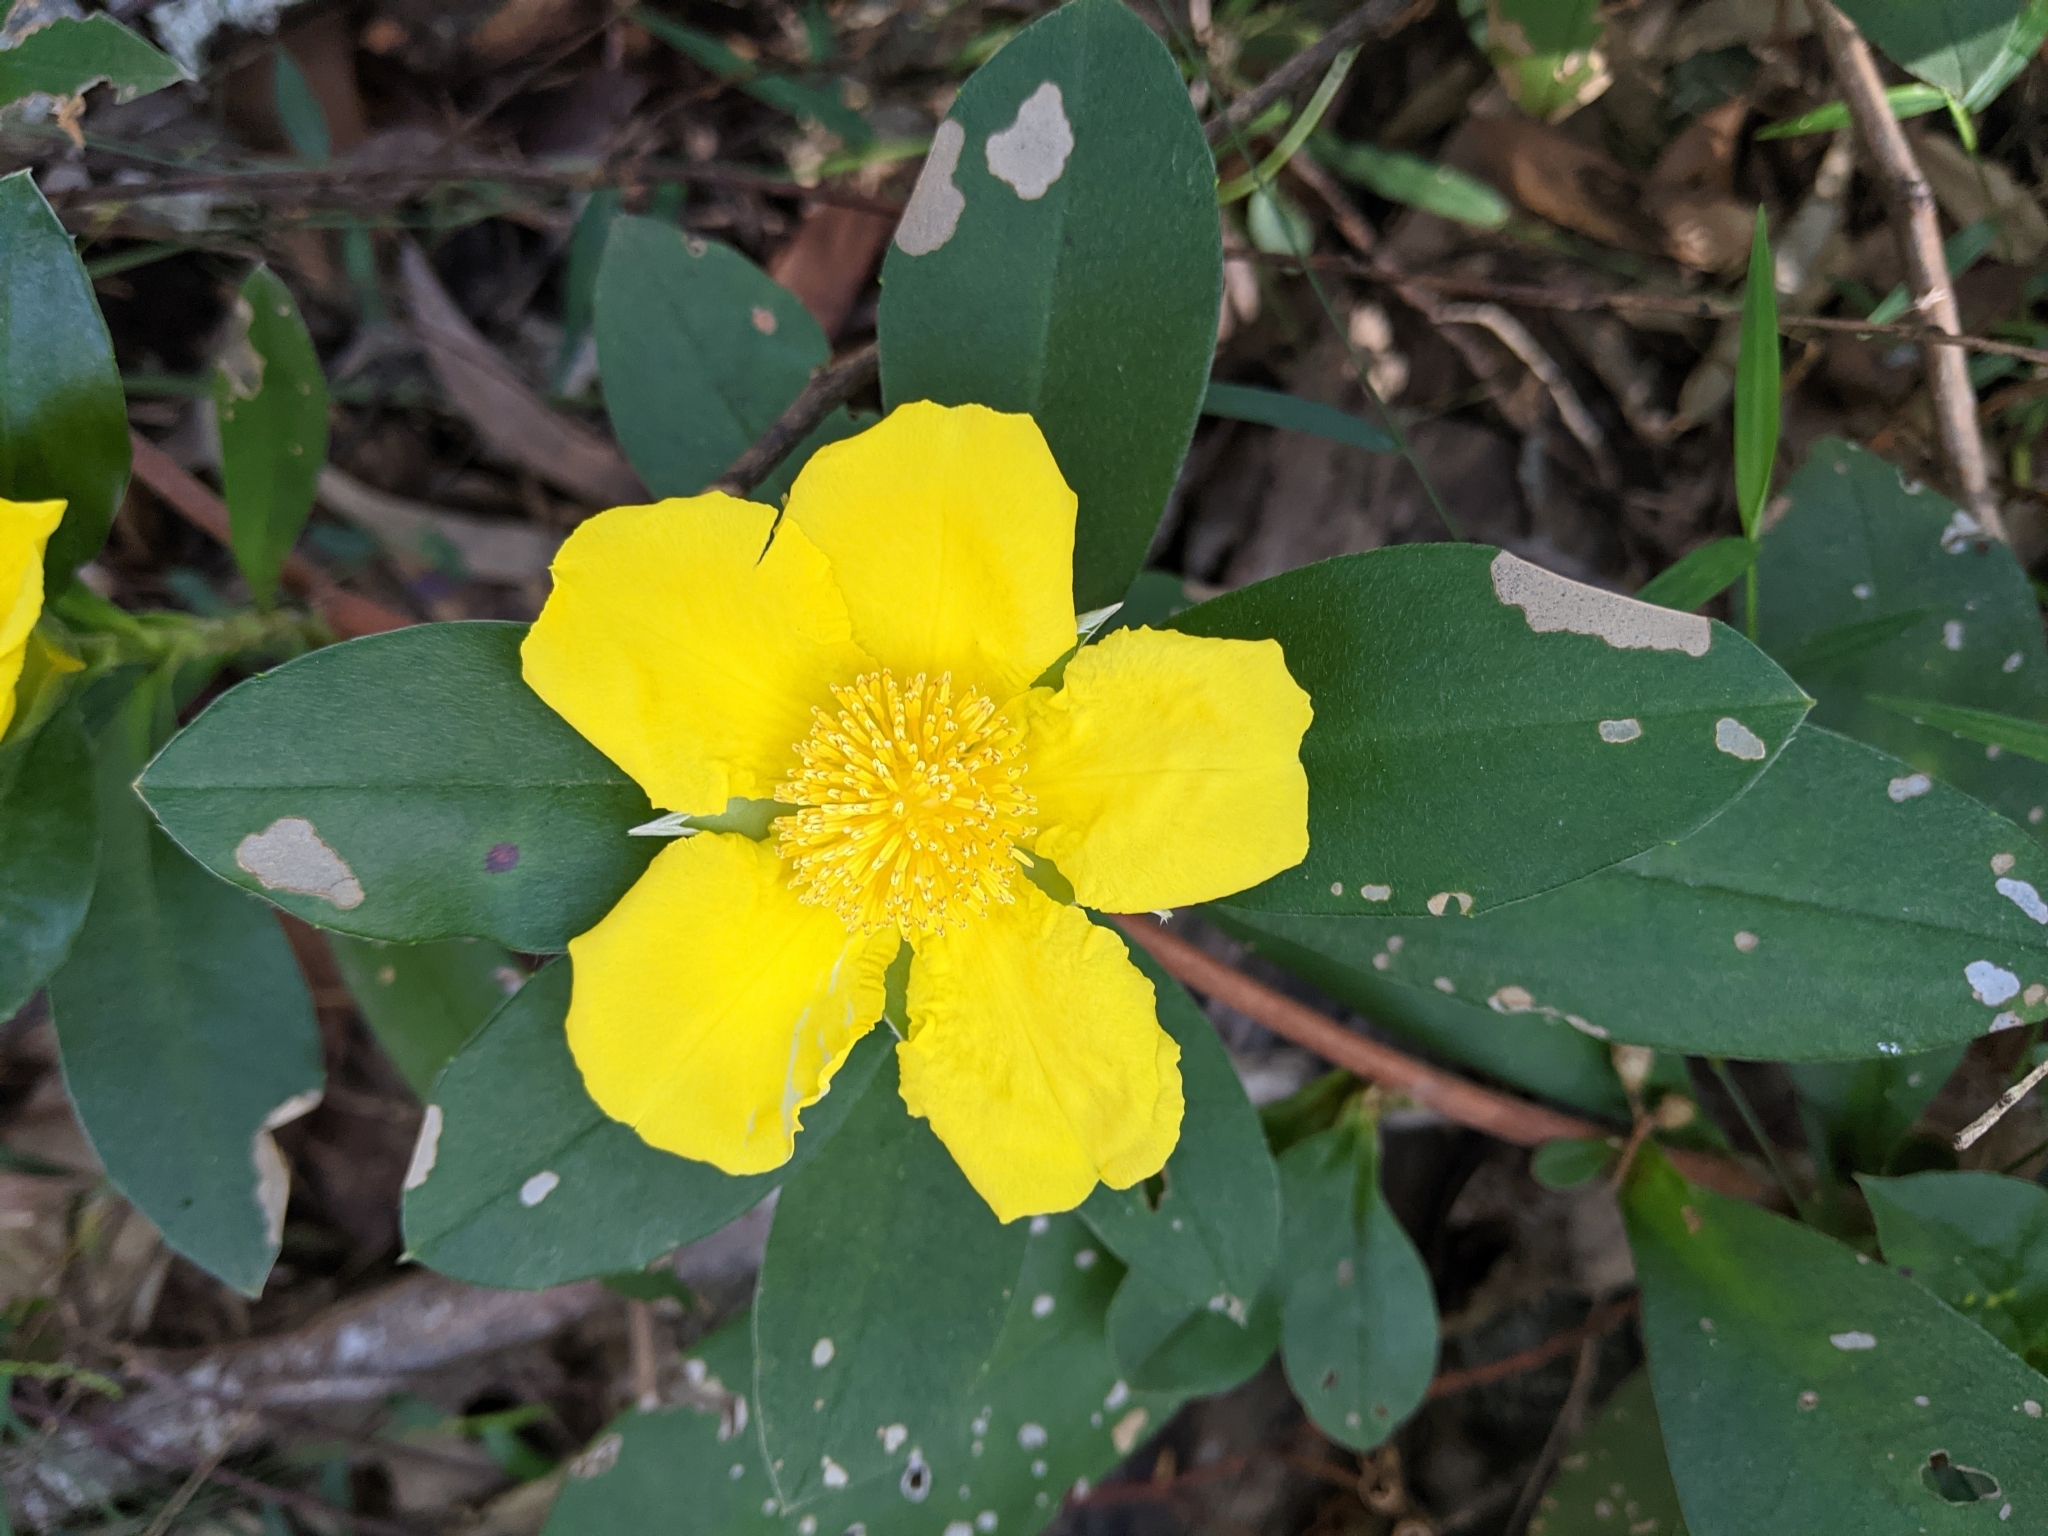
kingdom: Plantae
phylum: Tracheophyta
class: Magnoliopsida
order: Dilleniales
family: Dilleniaceae
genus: Hibbertia
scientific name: Hibbertia scandens
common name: Climbing guinea-flower
